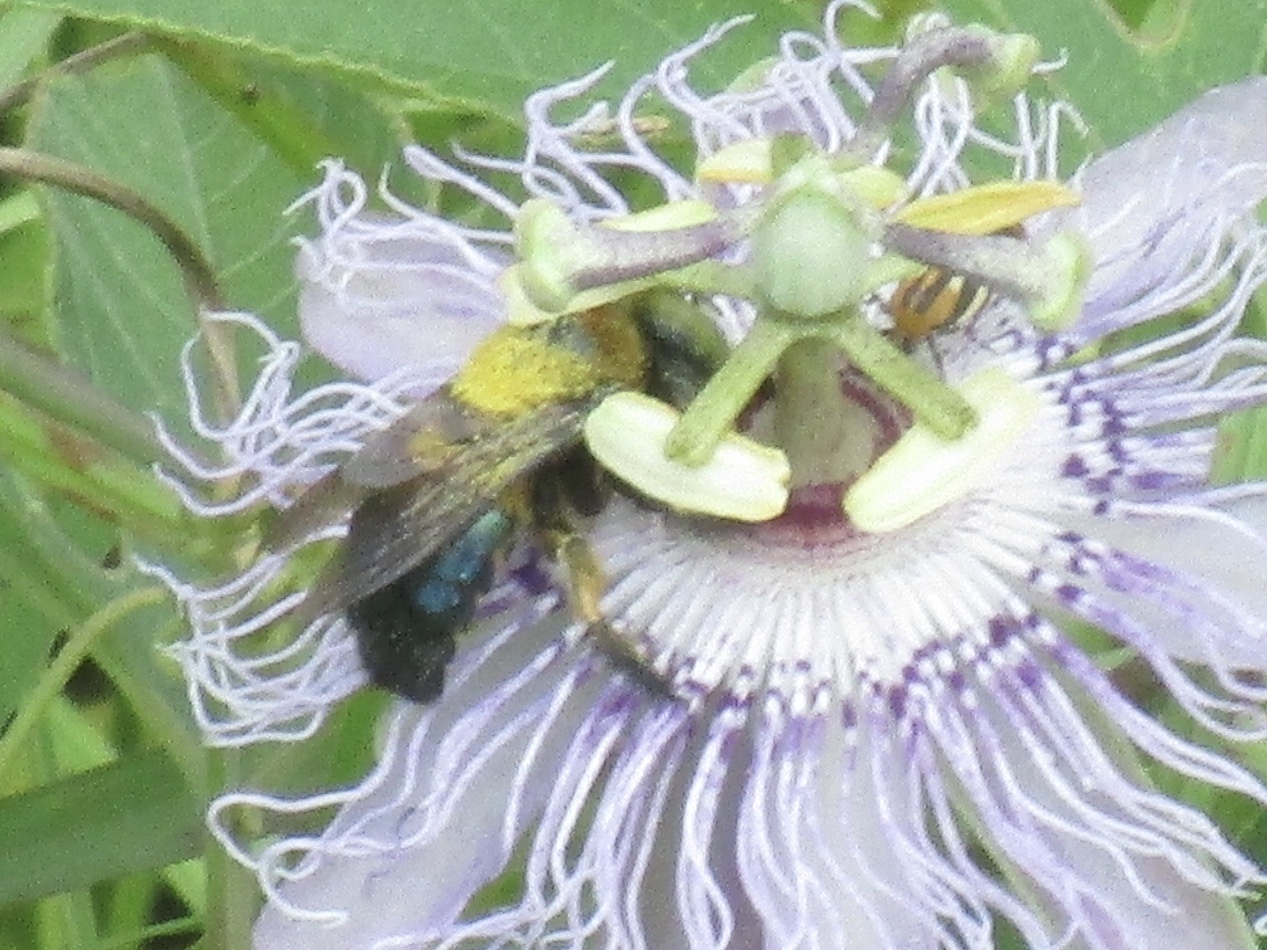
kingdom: Animalia
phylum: Arthropoda
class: Insecta
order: Hymenoptera
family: Apidae
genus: Xylocopa
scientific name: Xylocopa micans
